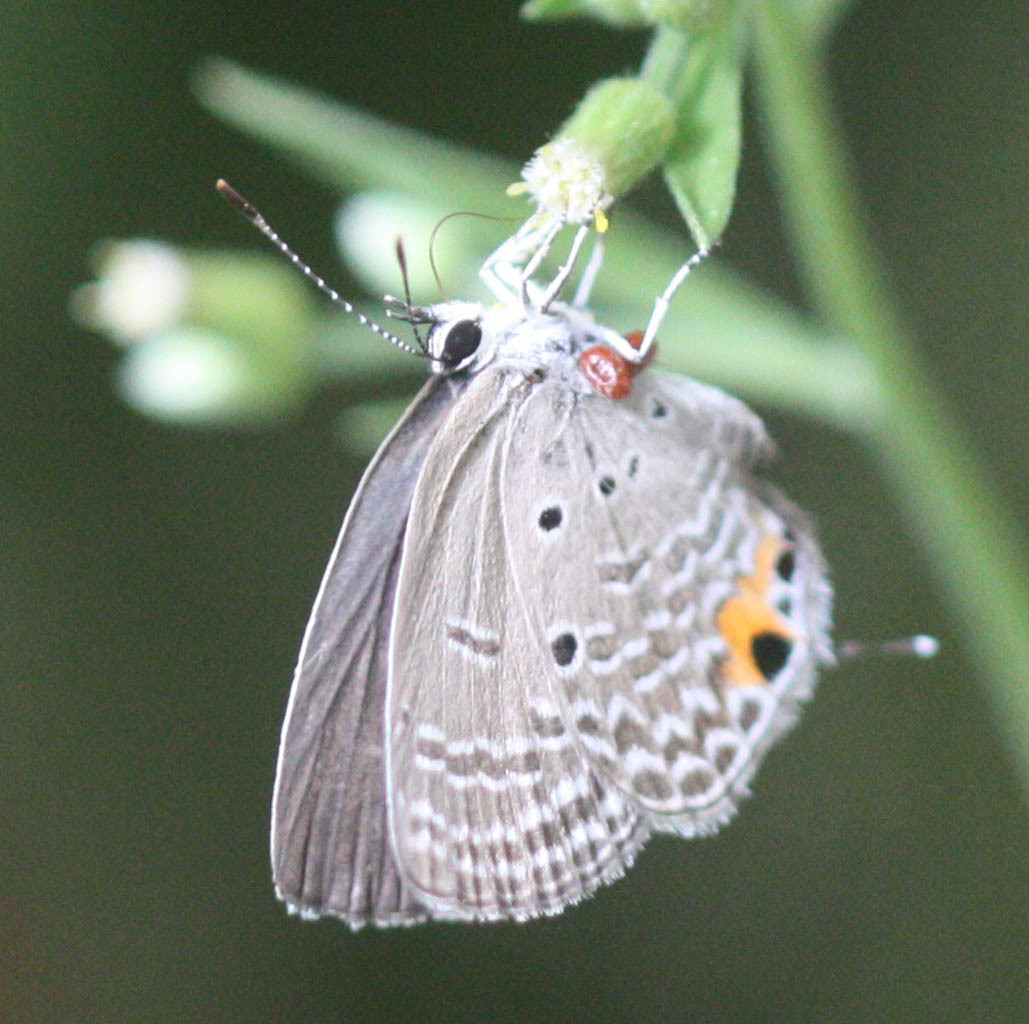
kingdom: Animalia
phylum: Arthropoda
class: Insecta
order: Lepidoptera
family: Lycaenidae
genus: Luthrodes
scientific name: Luthrodes pandava
